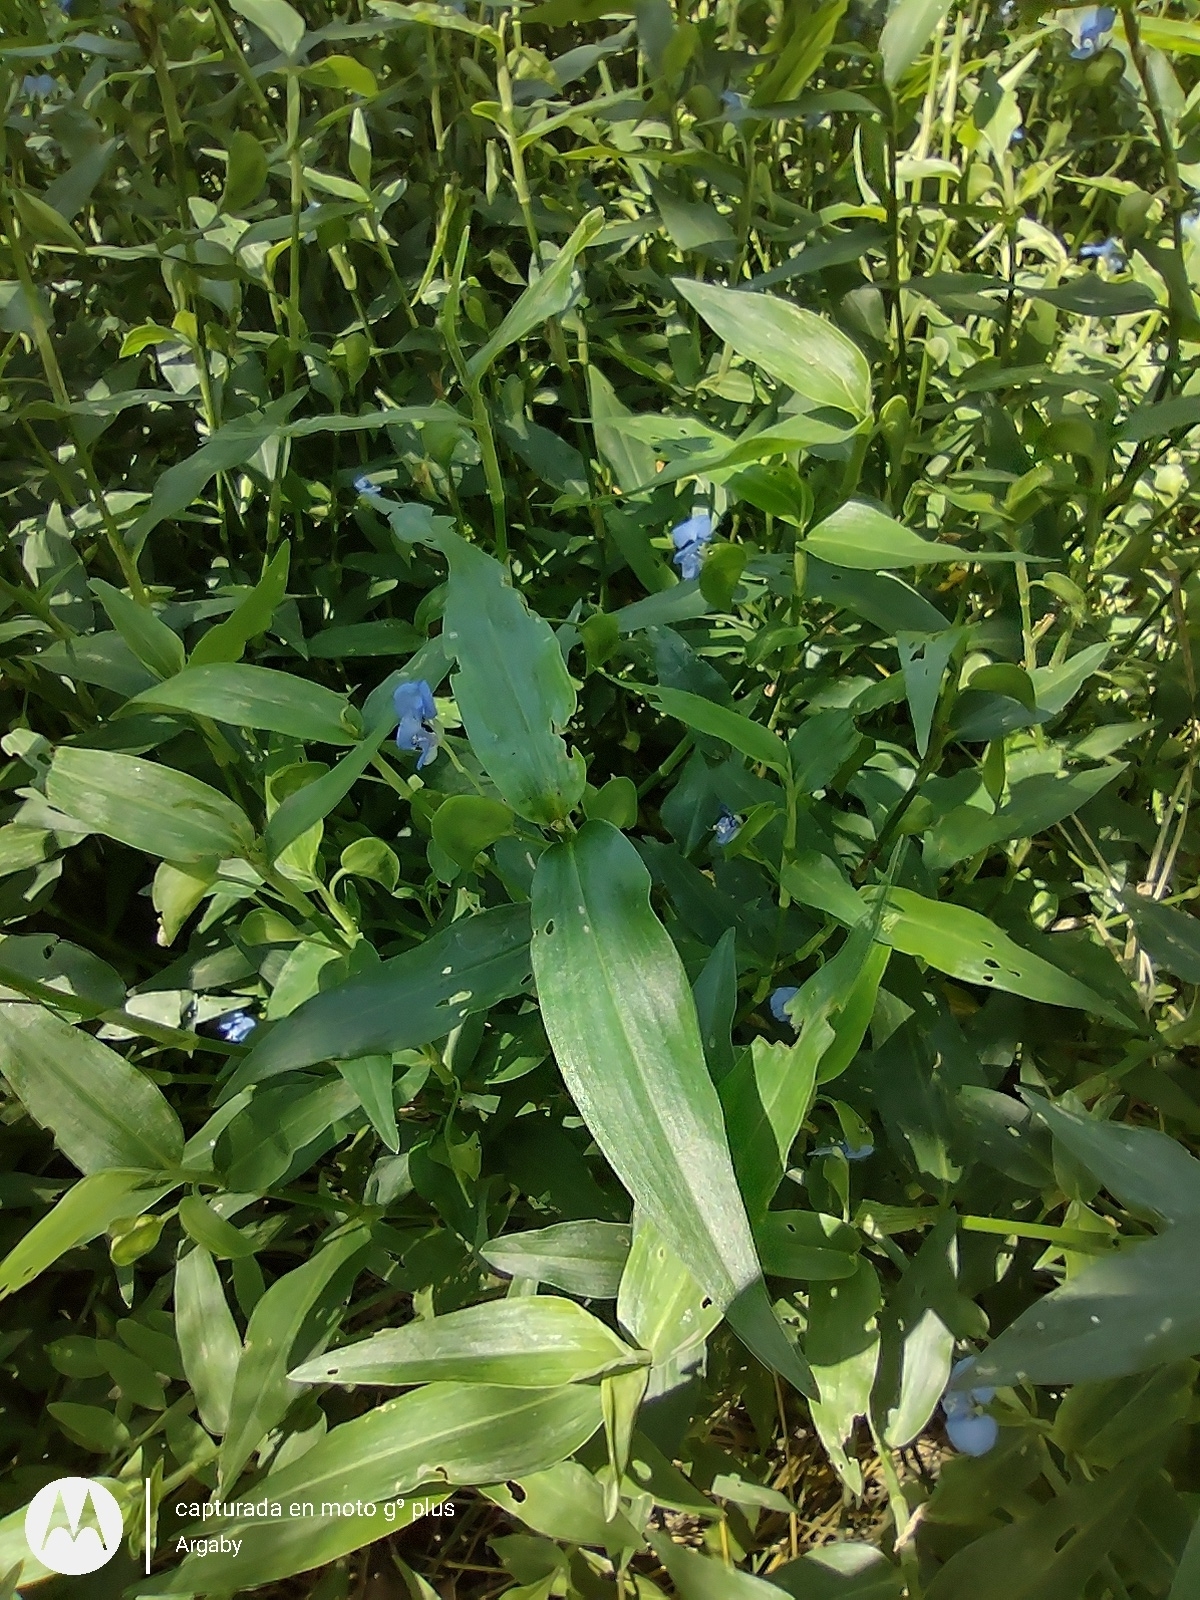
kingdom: Plantae
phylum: Tracheophyta
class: Liliopsida
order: Commelinales
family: Commelinaceae
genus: Commelina
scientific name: Commelina diffusa
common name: Climbing dayflower
